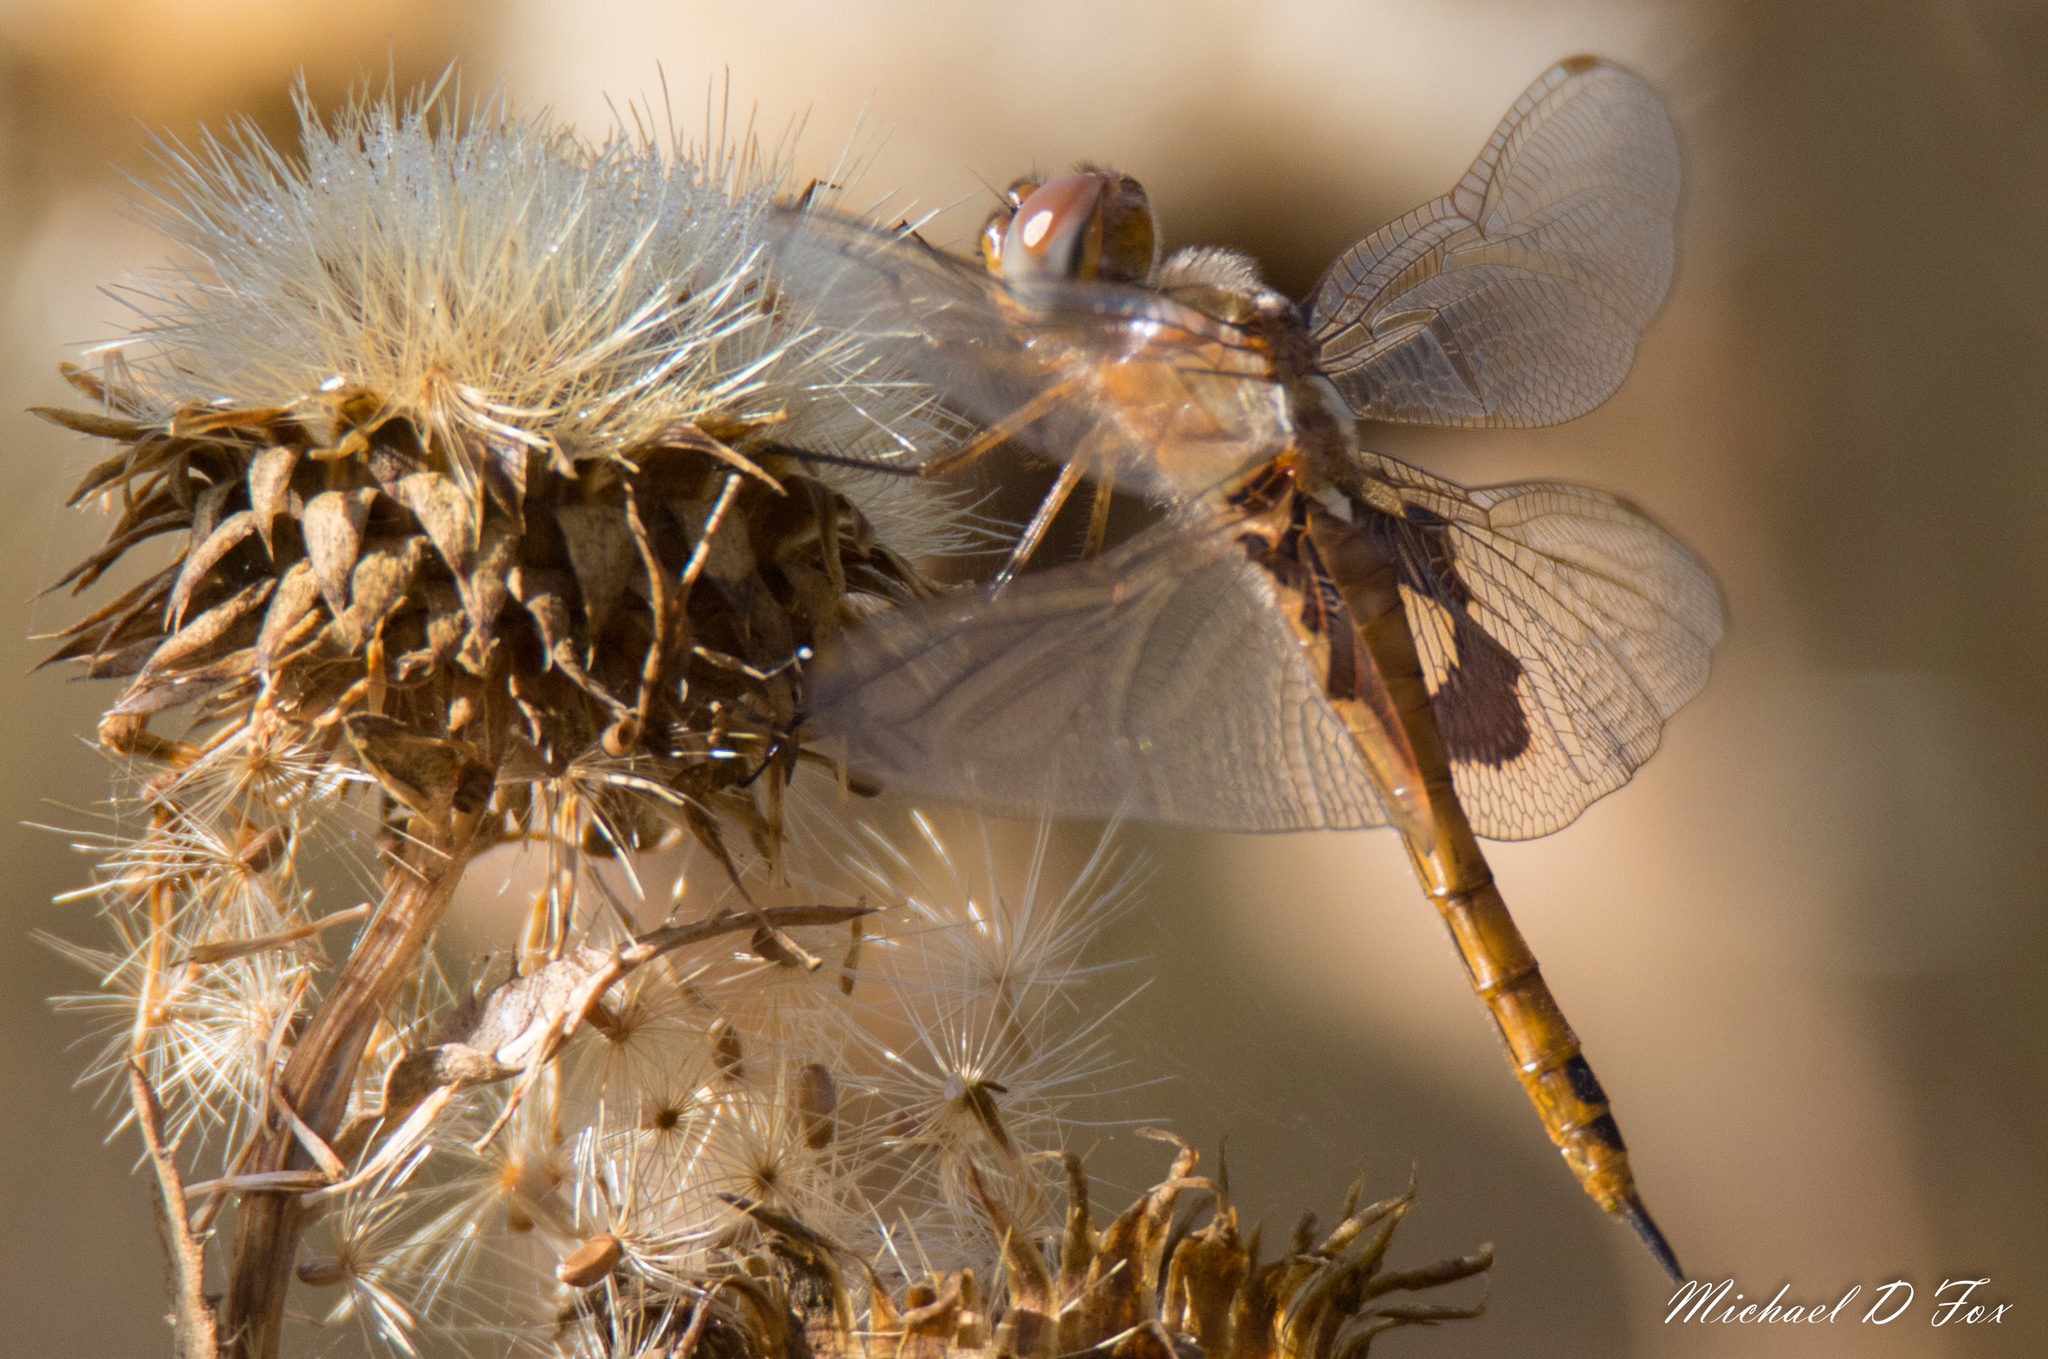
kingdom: Animalia
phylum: Arthropoda
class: Insecta
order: Odonata
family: Libellulidae
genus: Tramea
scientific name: Tramea onusta
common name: Red saddlebags
